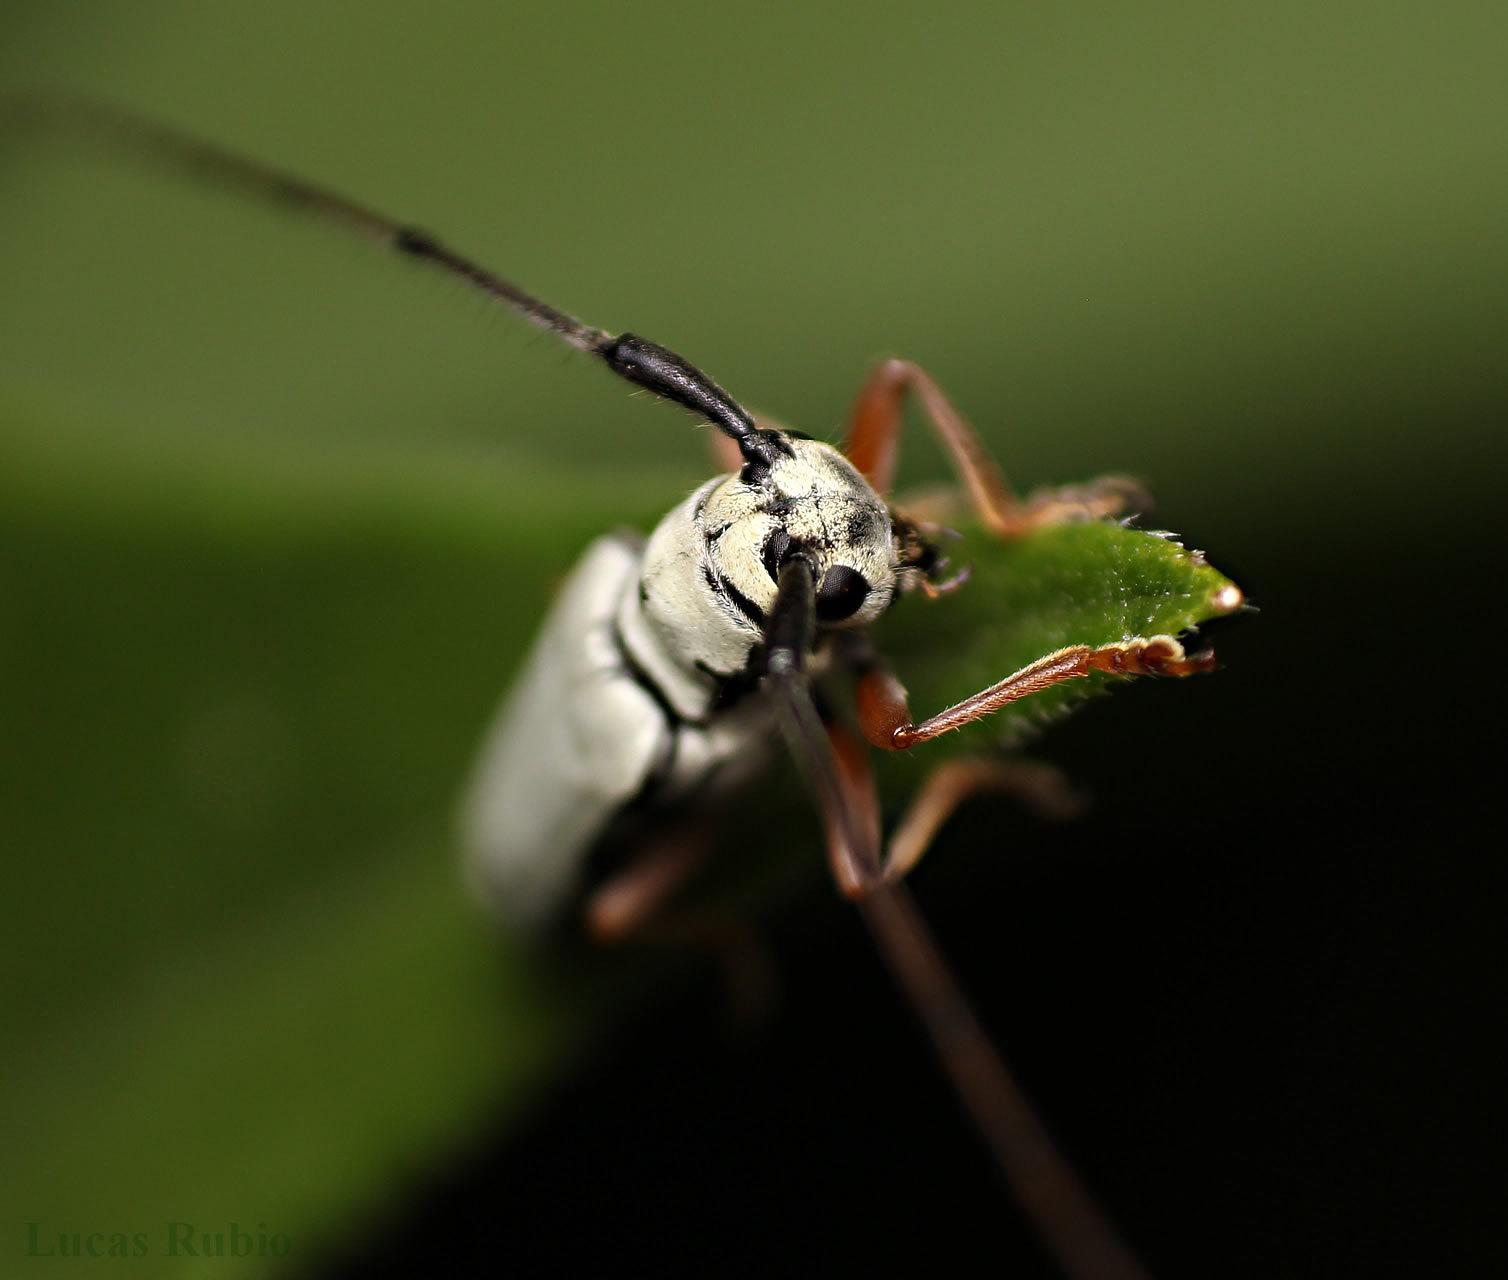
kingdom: Animalia
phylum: Arthropoda
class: Insecta
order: Coleoptera
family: Cerambycidae
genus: Zeale
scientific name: Zeale nigromaculata
